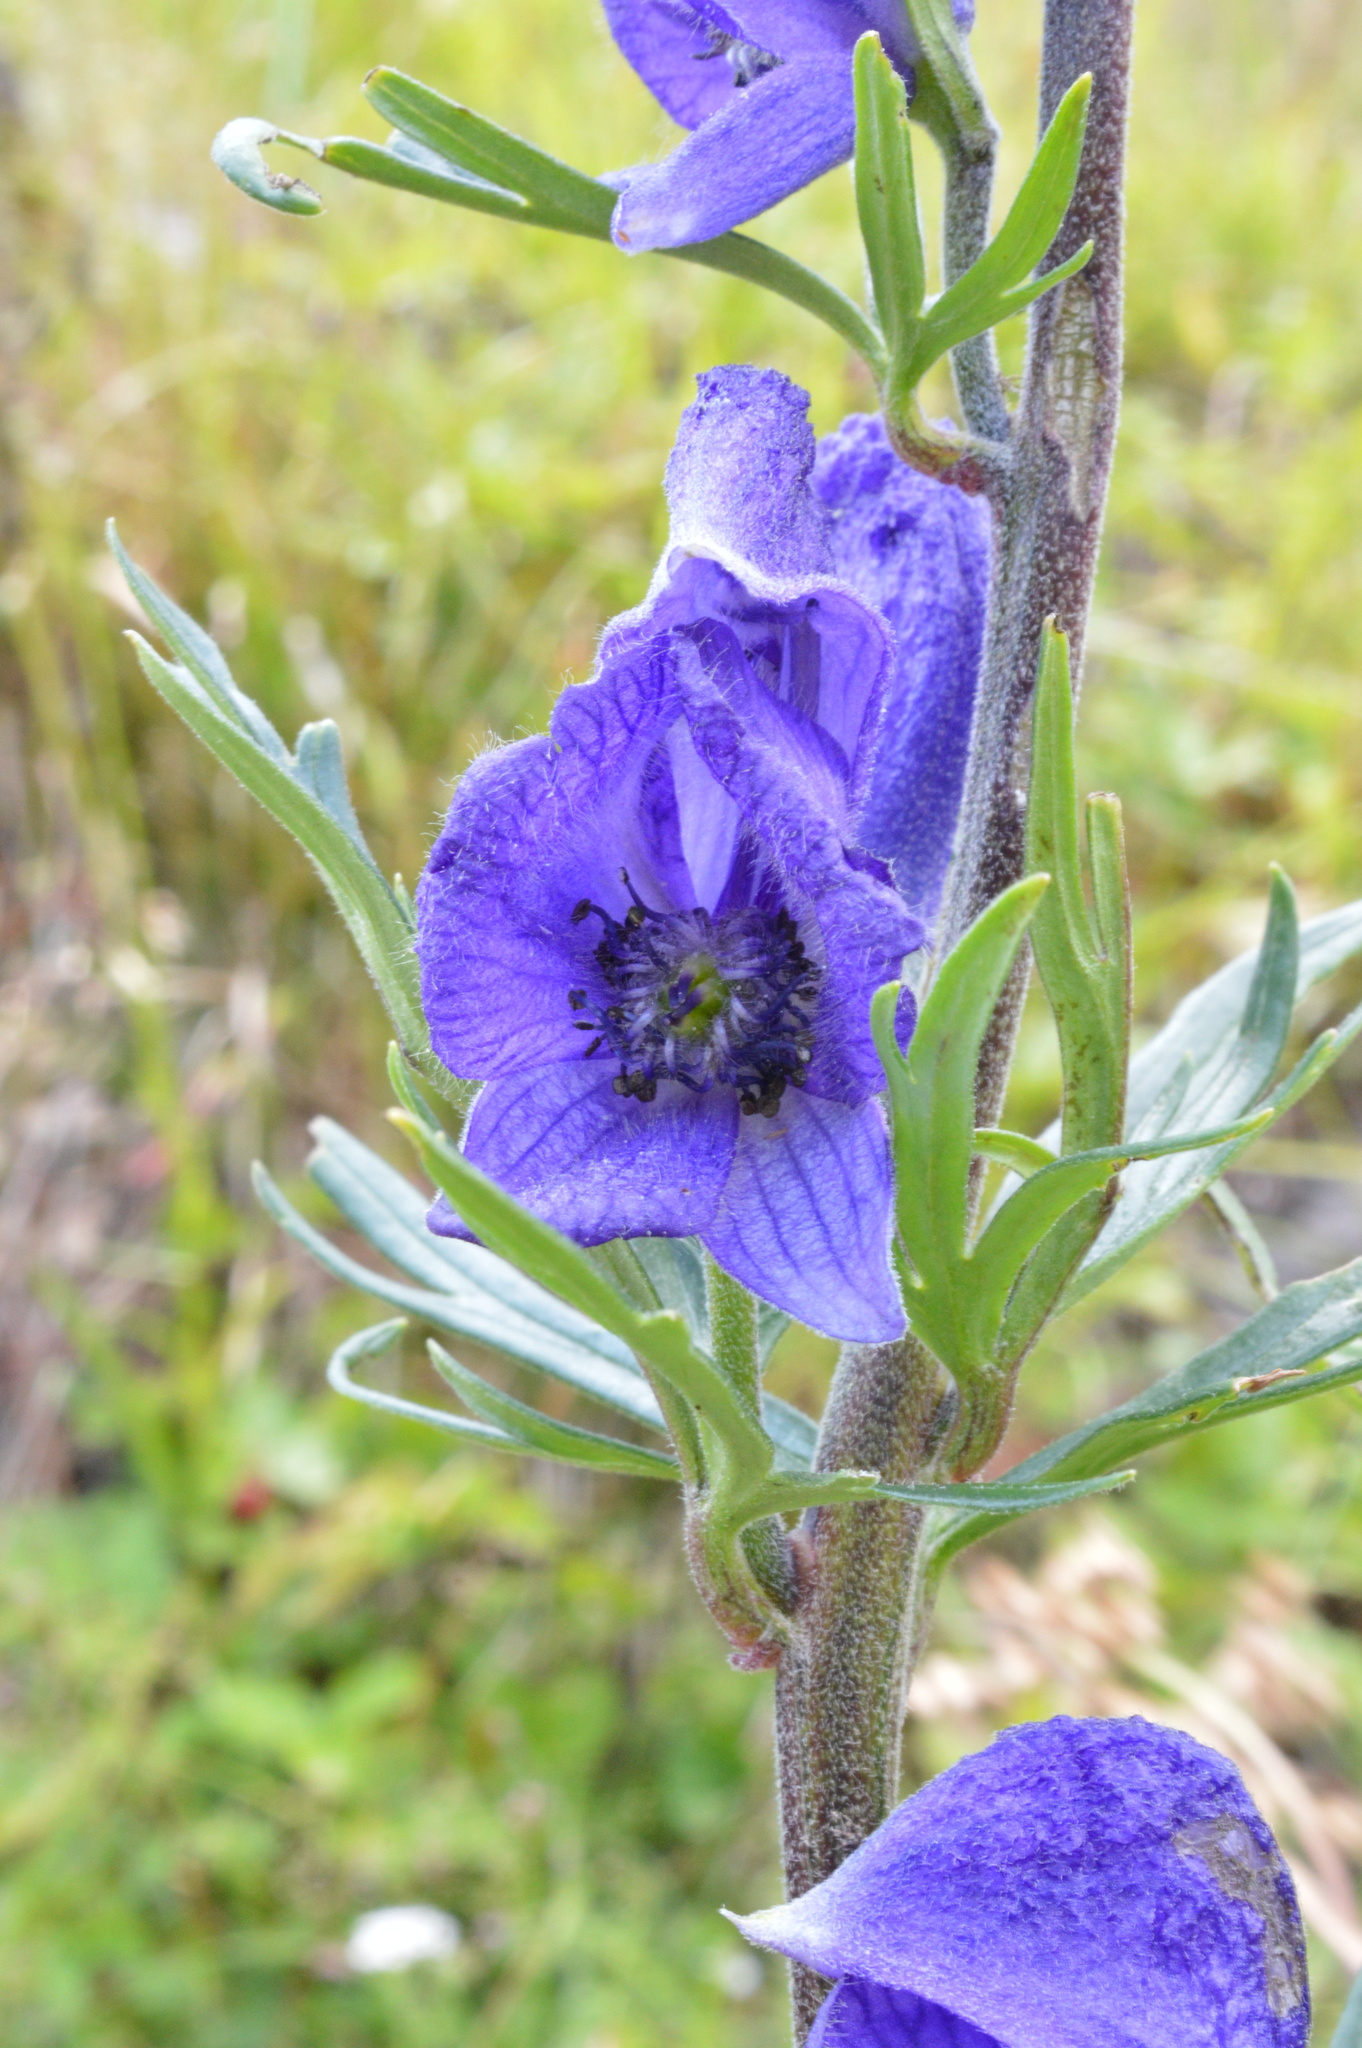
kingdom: Plantae
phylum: Tracheophyta
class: Magnoliopsida
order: Ranunculales
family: Ranunculaceae
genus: Aconitum
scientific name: Aconitum napellus
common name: Garden monkshood
